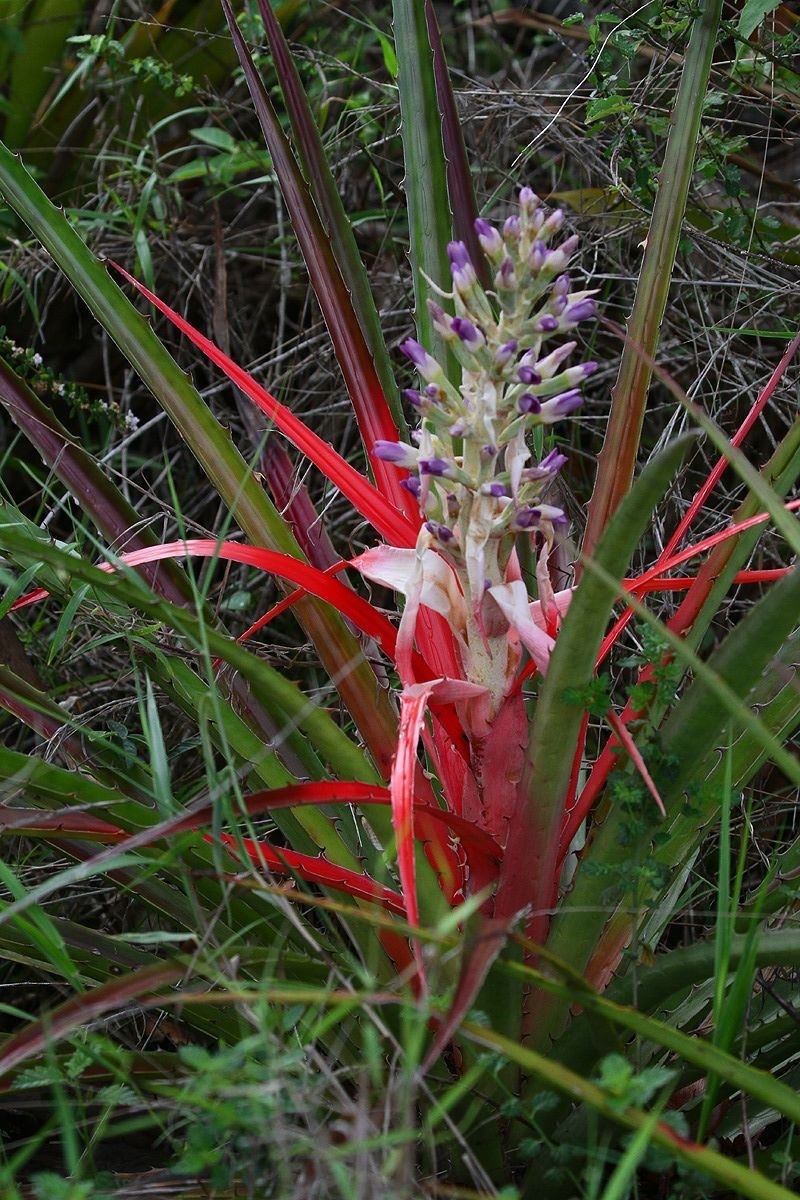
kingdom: Plantae
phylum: Tracheophyta
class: Liliopsida
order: Poales
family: Bromeliaceae
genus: Bromelia
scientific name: Bromelia antiacantha
